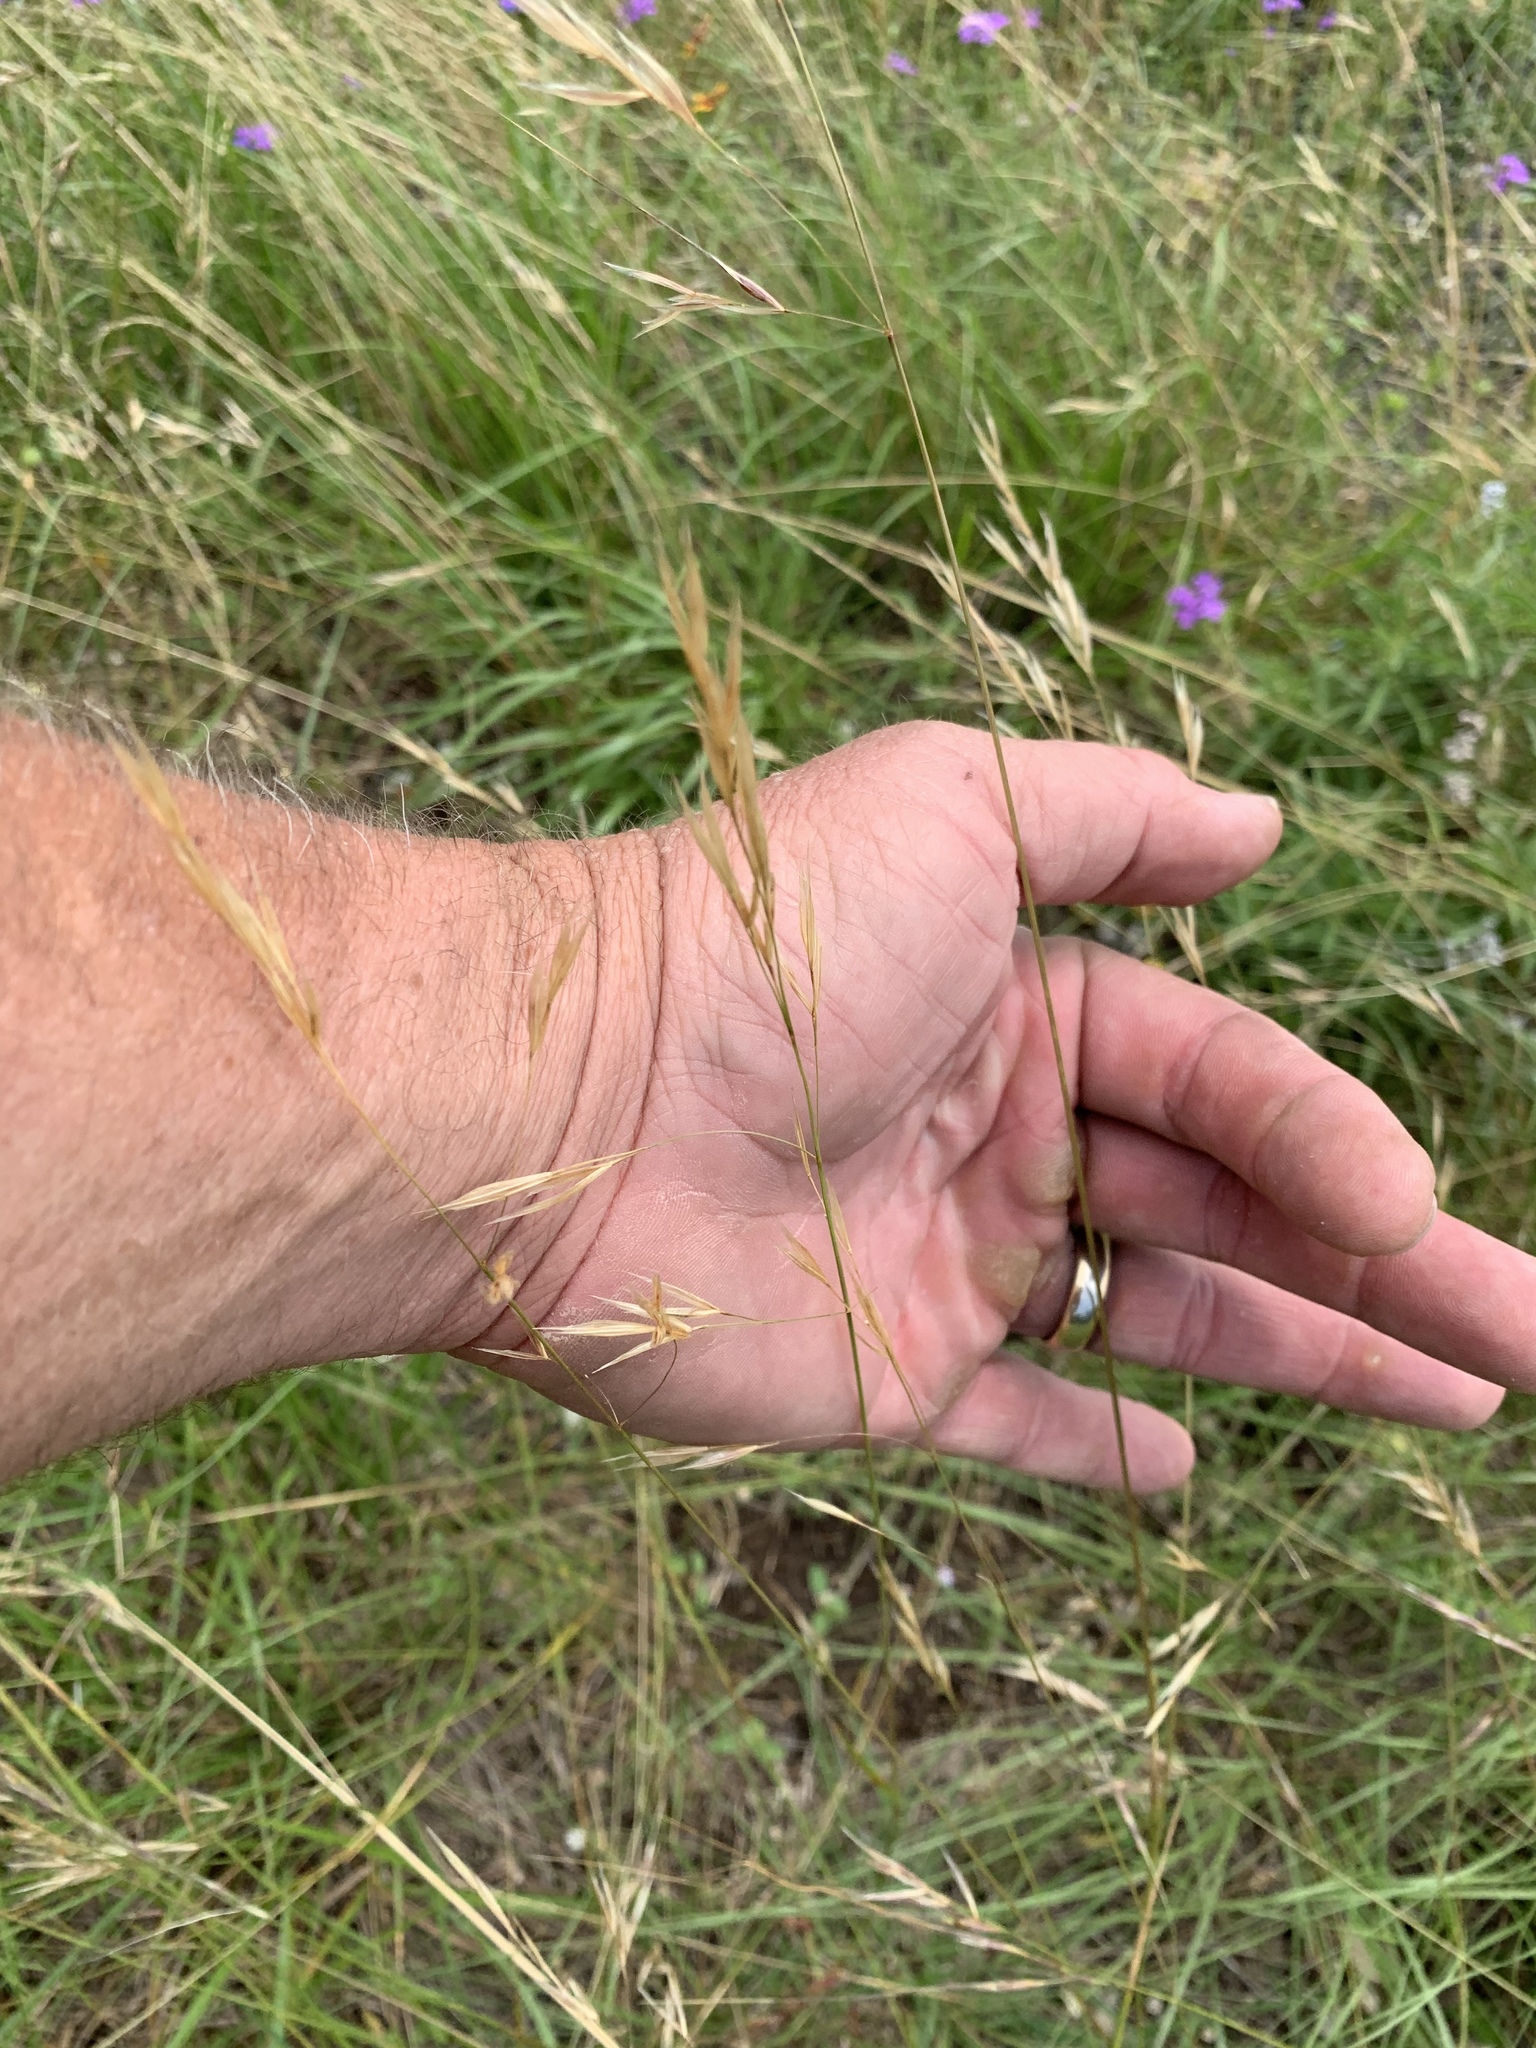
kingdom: Plantae
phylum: Tracheophyta
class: Liliopsida
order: Poales
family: Poaceae
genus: Nassella
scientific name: Nassella leucotricha
